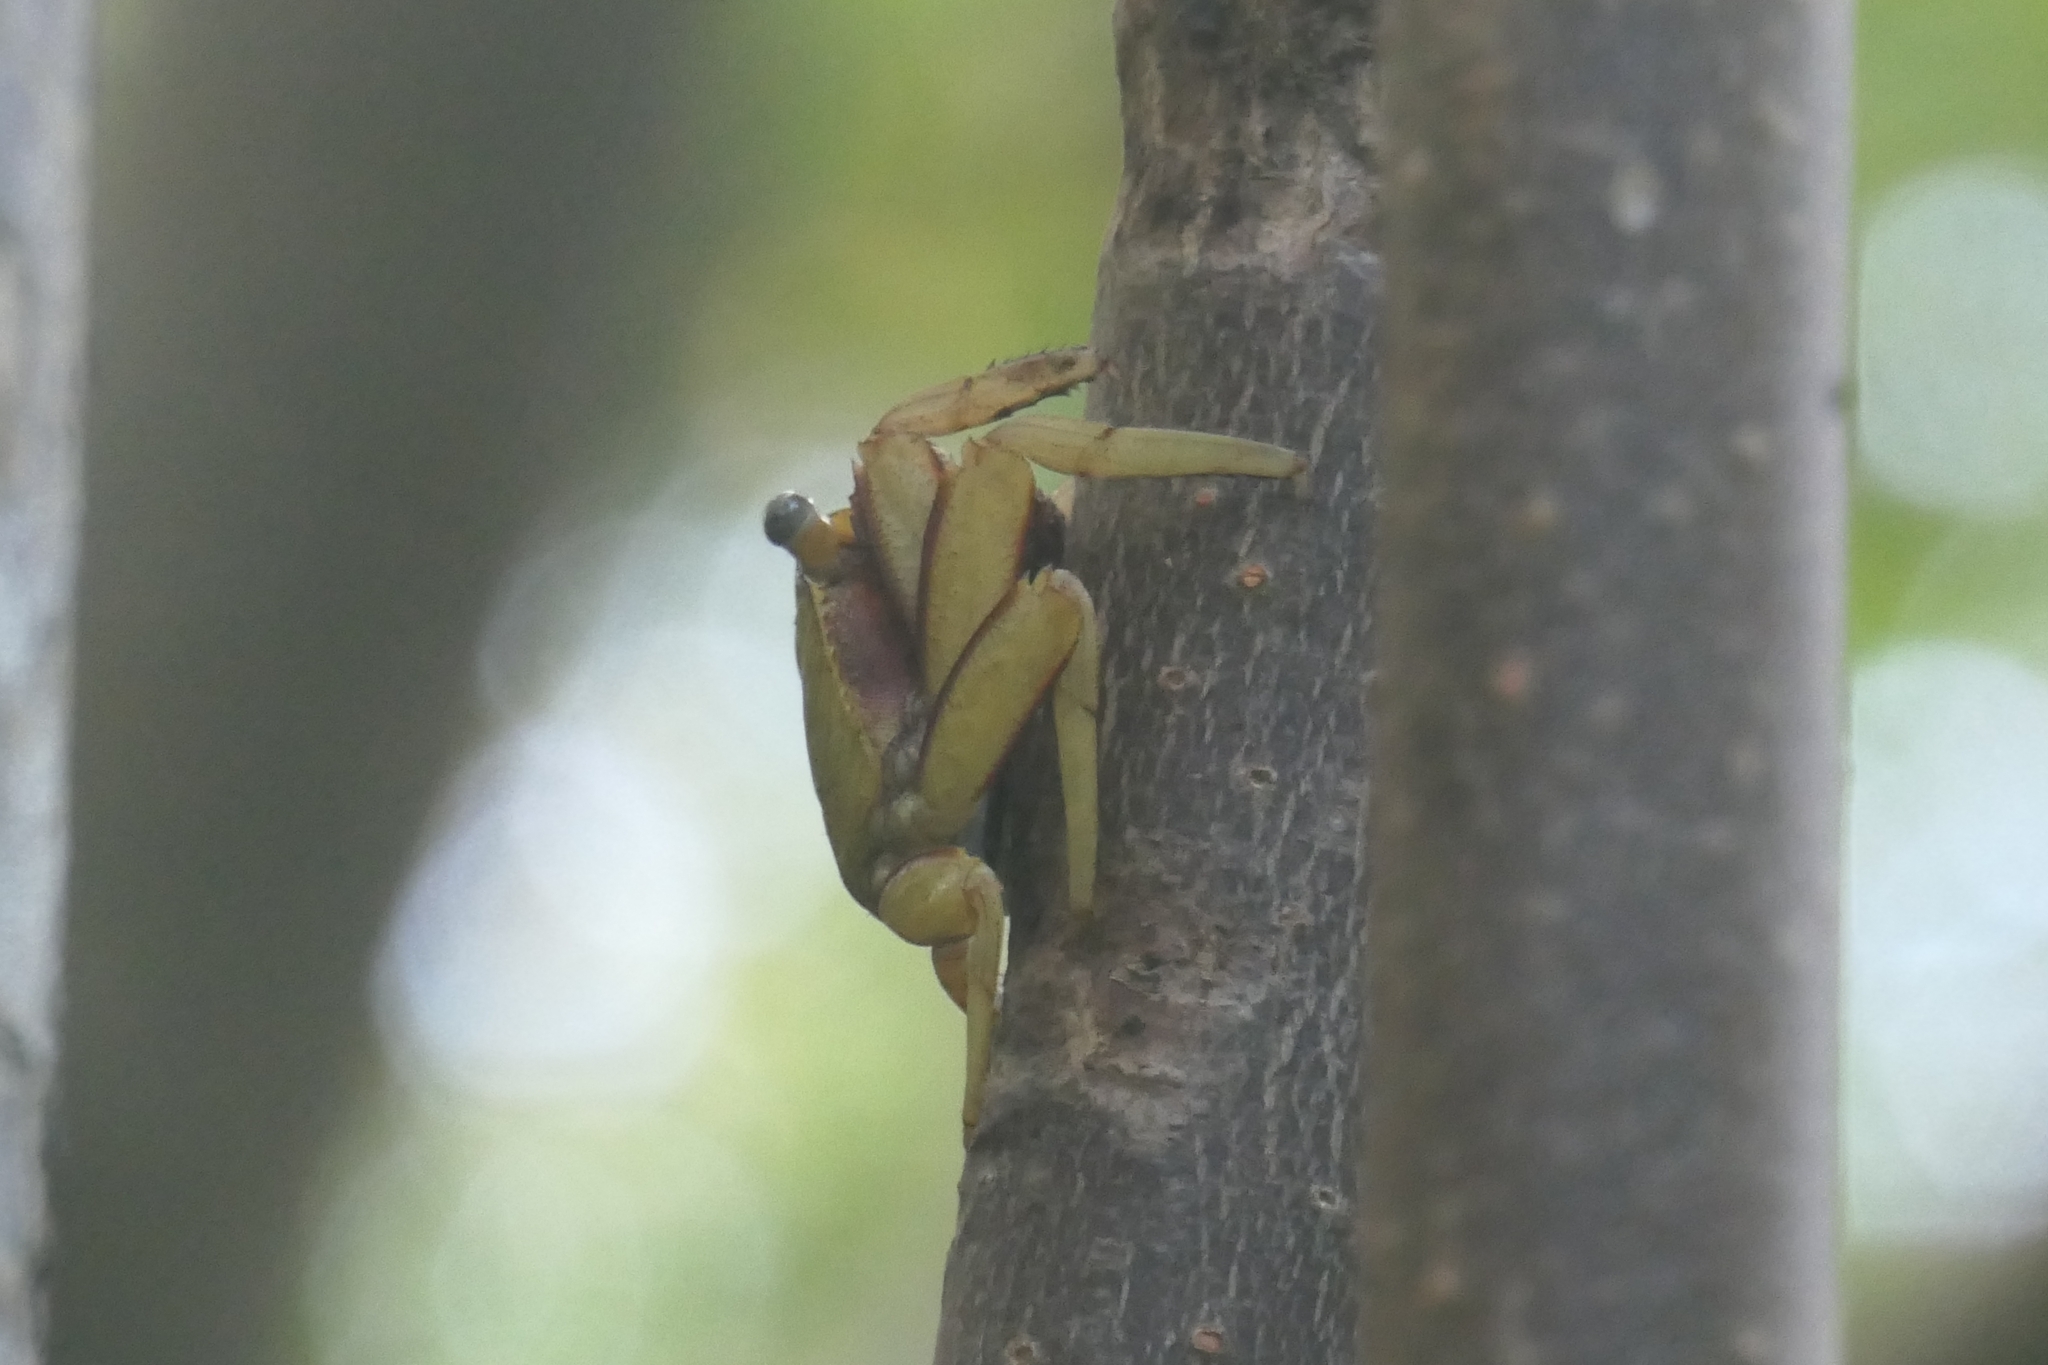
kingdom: Animalia
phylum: Arthropoda
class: Malacostraca
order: Decapoda
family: Sesarmidae
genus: Aratus
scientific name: Aratus pisonii
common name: Mangrove crab
